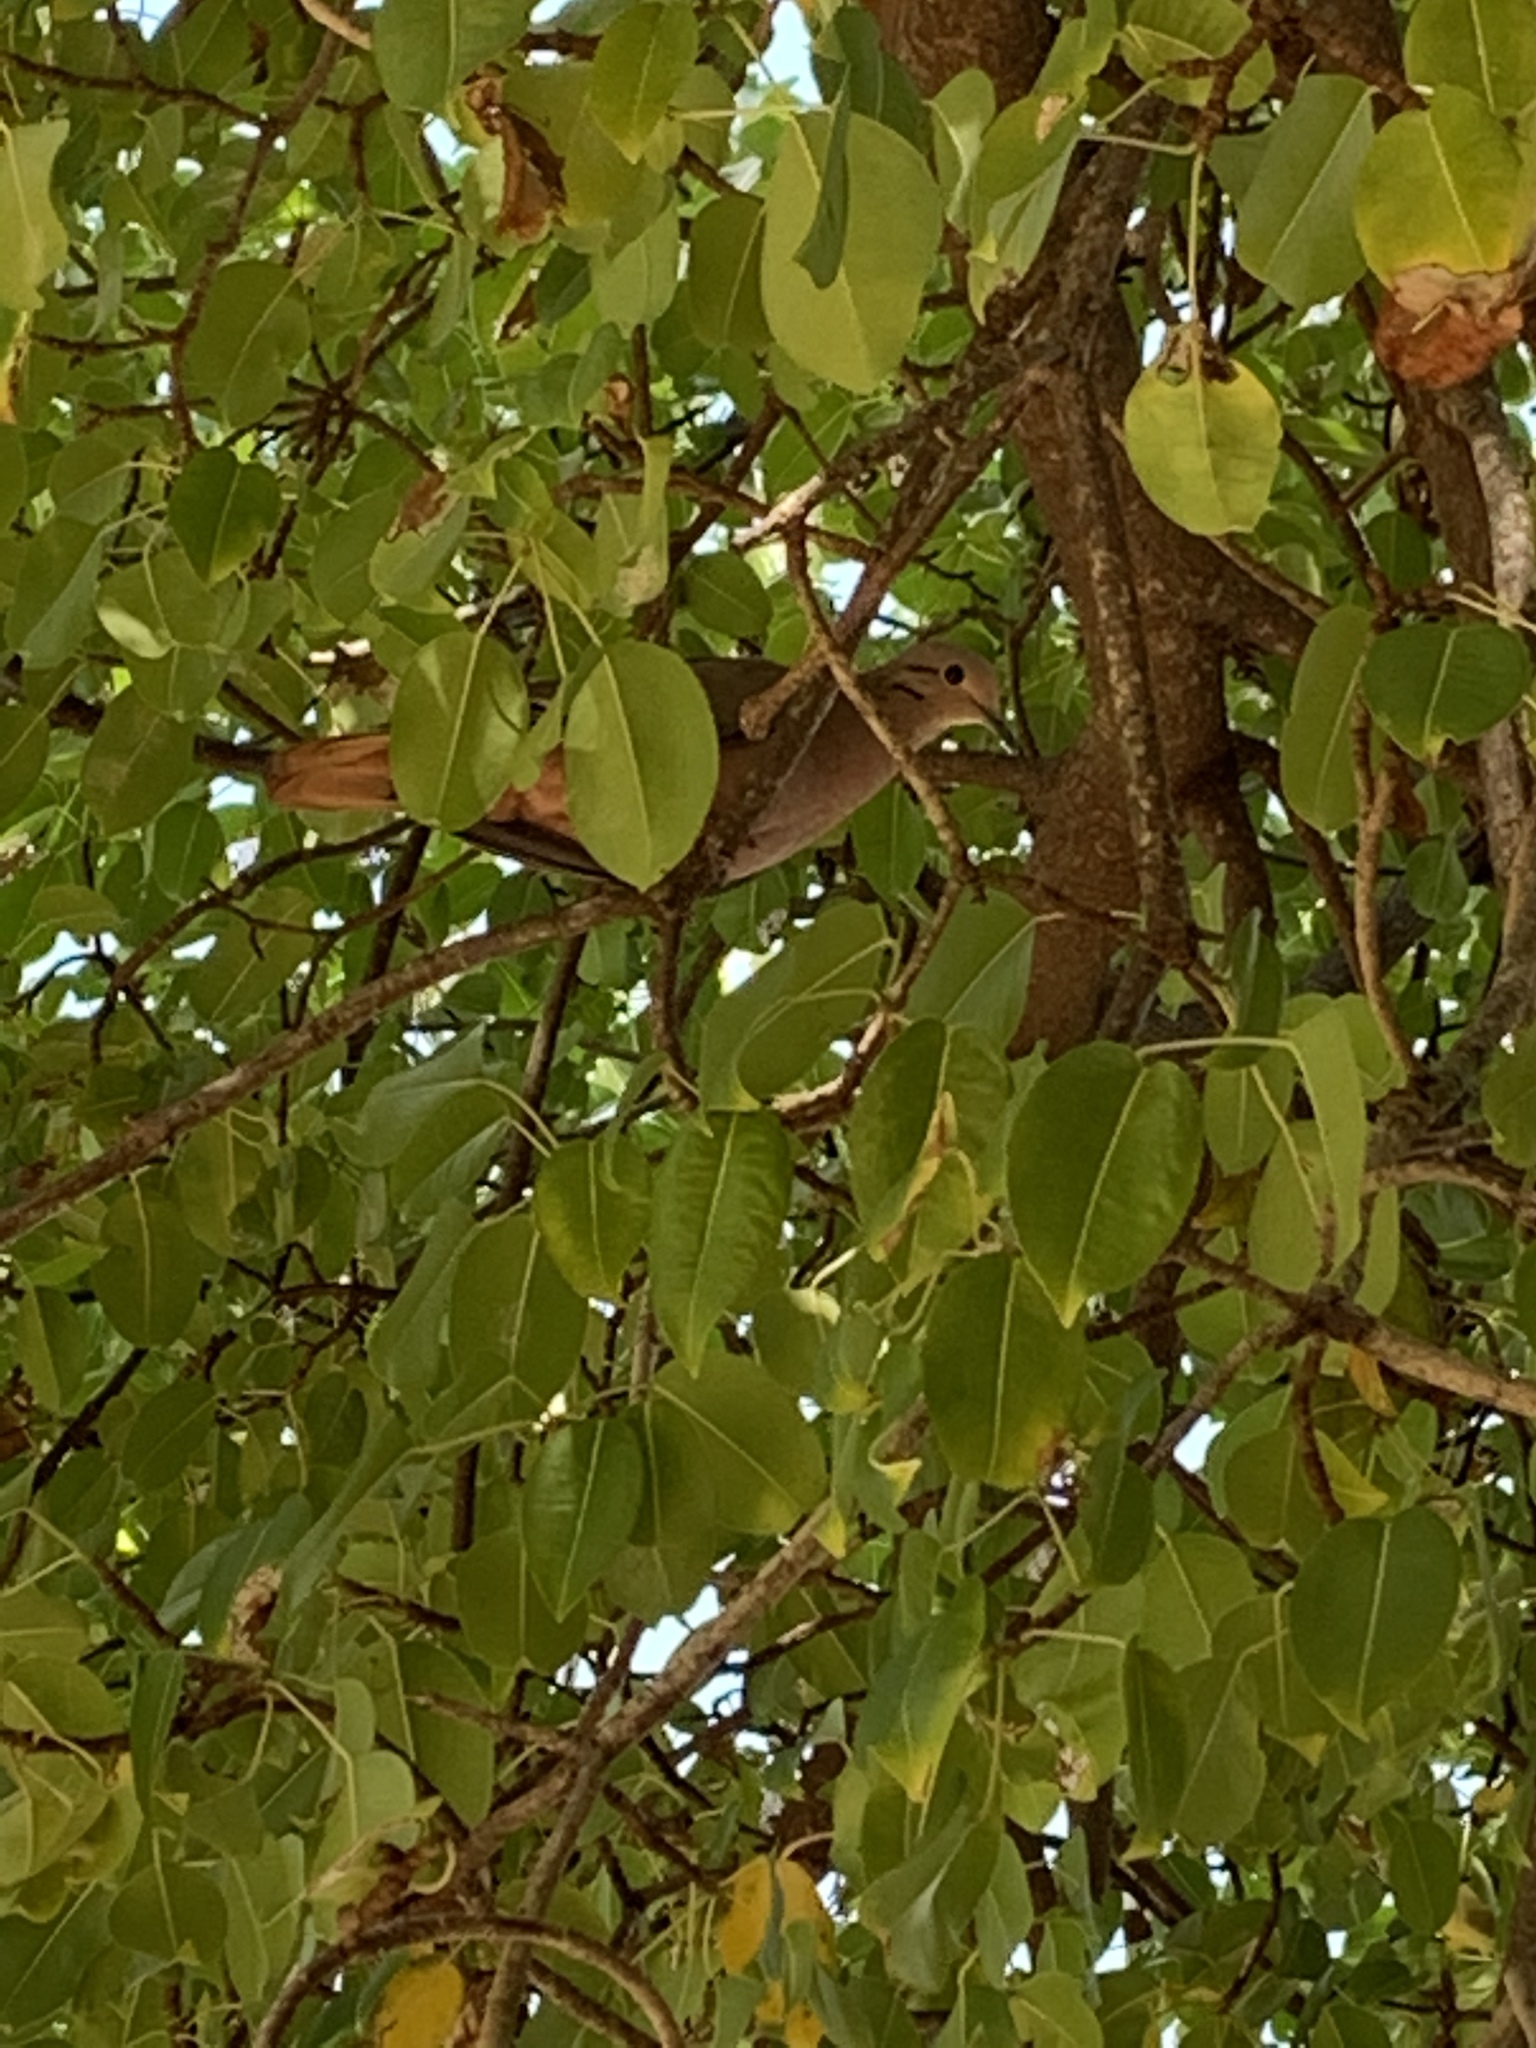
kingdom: Animalia
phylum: Chordata
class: Aves
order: Columbiformes
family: Columbidae
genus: Zenaida
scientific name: Zenaida auriculata
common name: Eared dove
